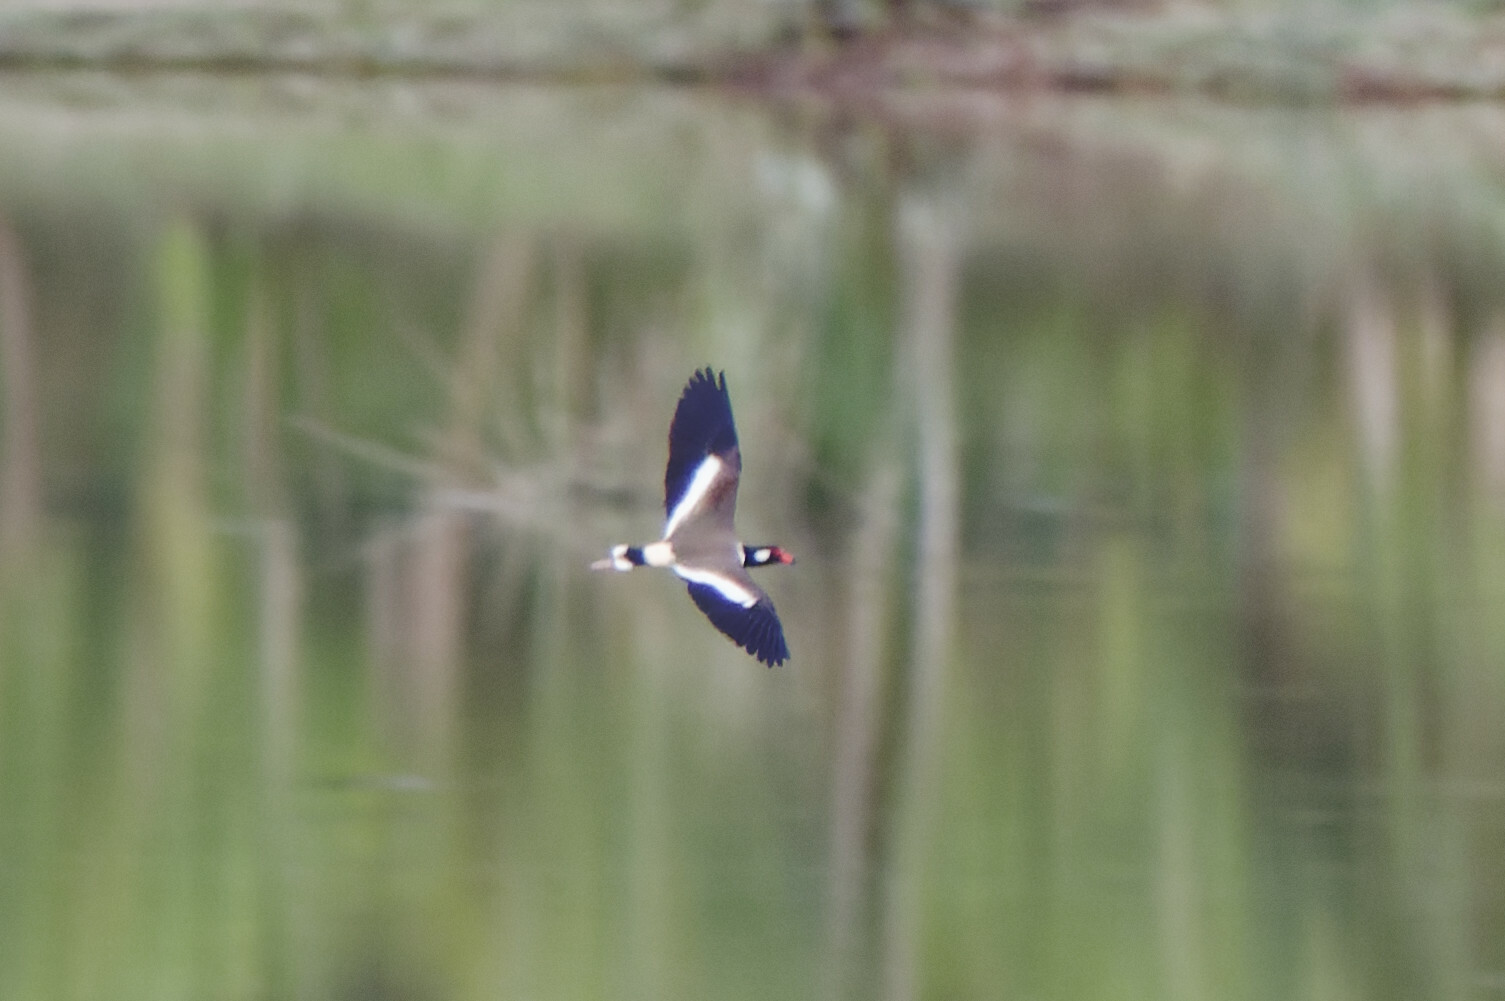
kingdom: Animalia
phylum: Chordata
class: Aves
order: Charadriiformes
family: Charadriidae
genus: Vanellus
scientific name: Vanellus indicus
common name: Red-wattled lapwing
